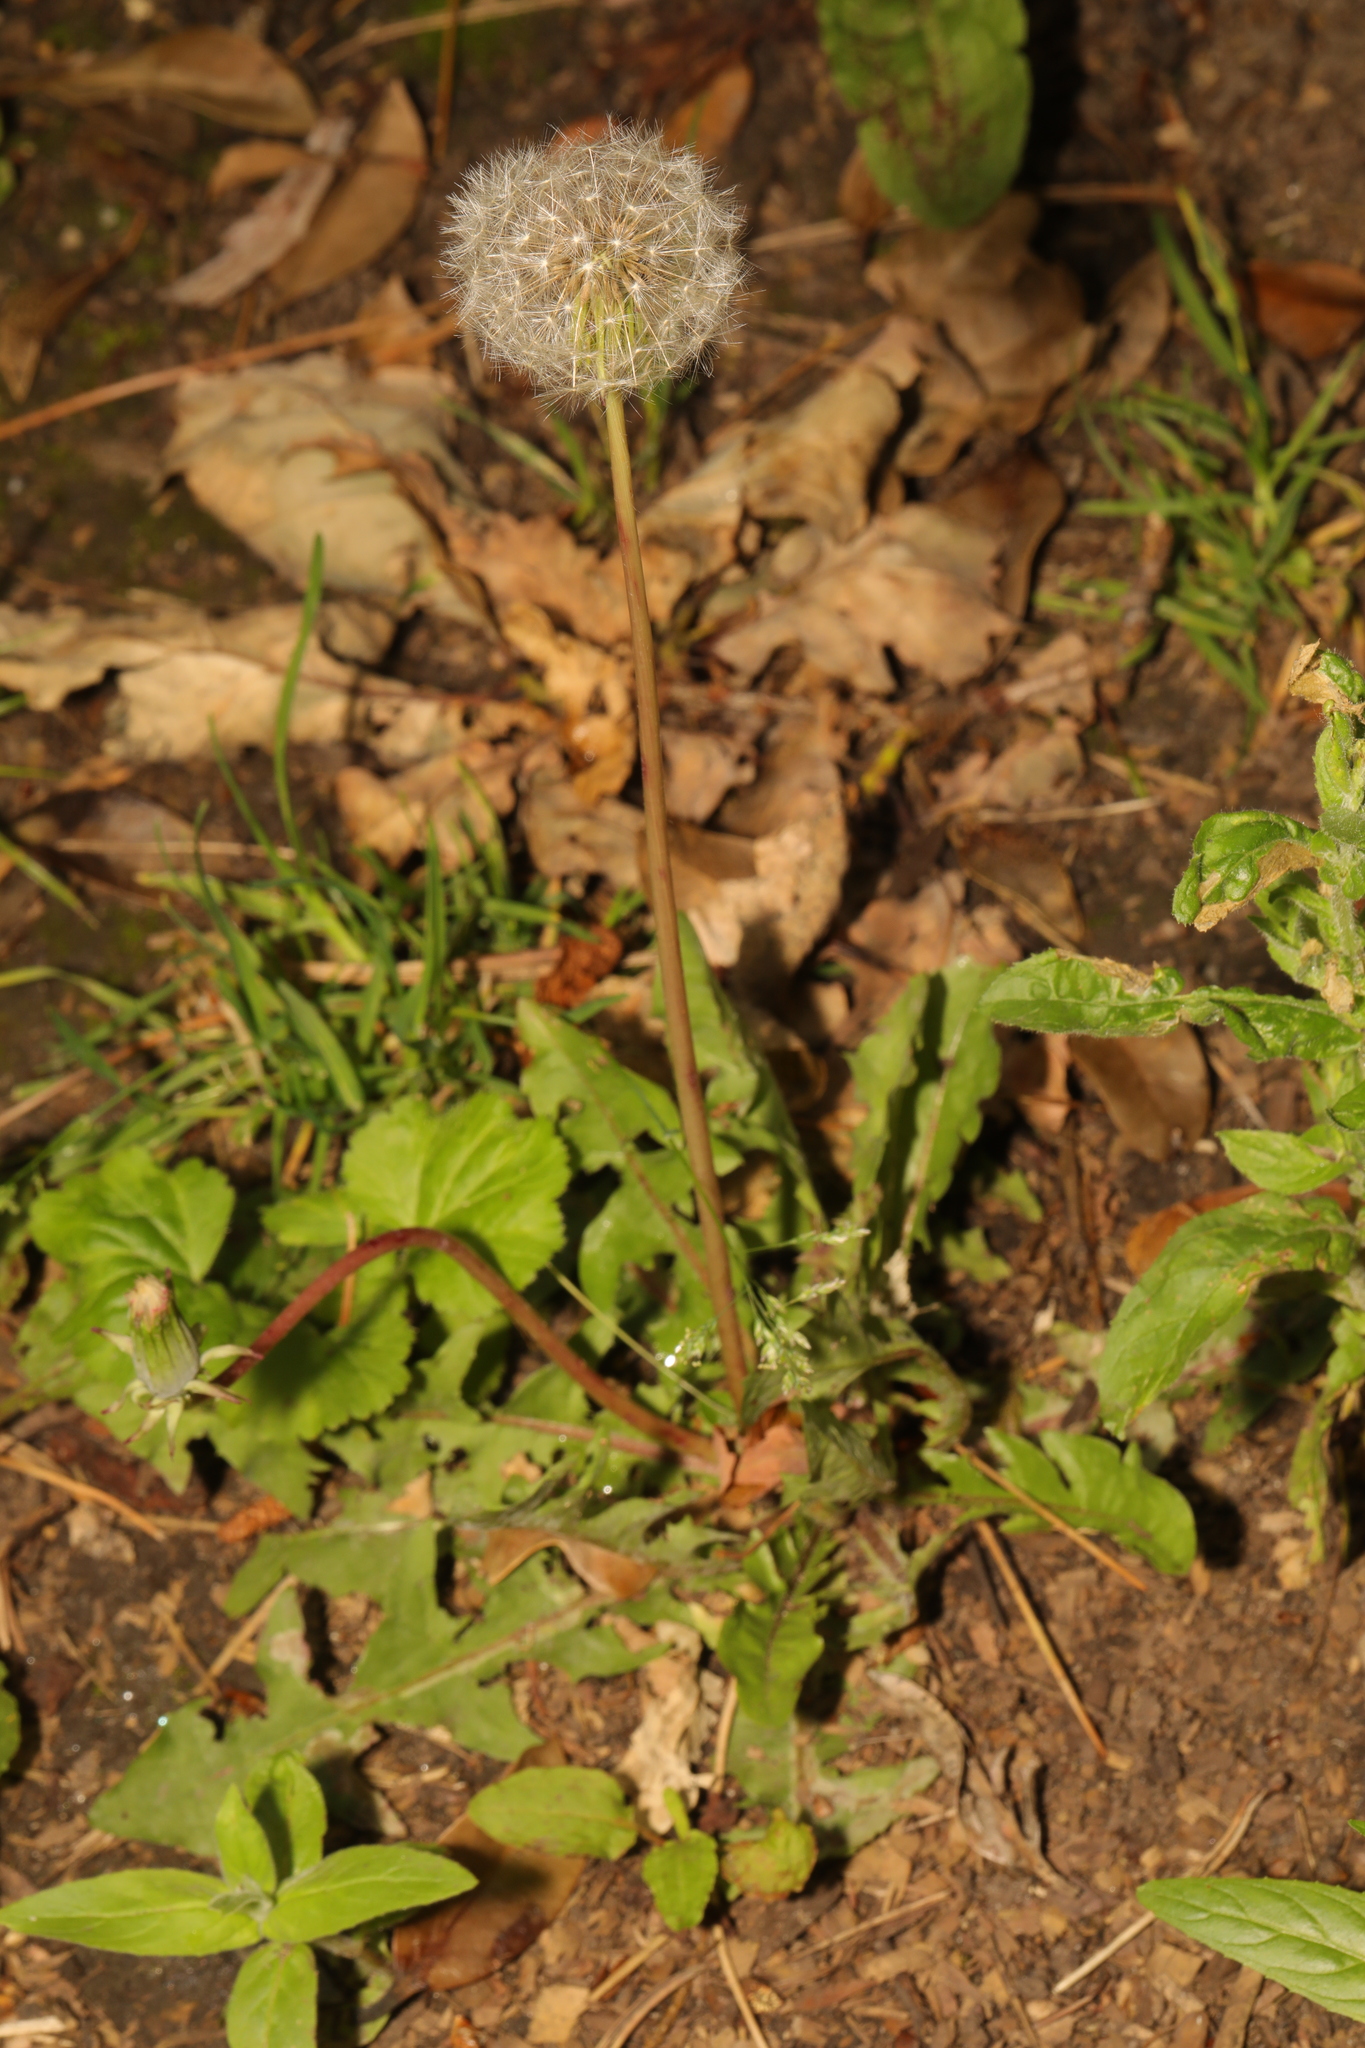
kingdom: Plantae
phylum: Tracheophyta
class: Magnoliopsida
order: Asterales
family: Asteraceae
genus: Taraxacum
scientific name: Taraxacum officinale
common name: Common dandelion
